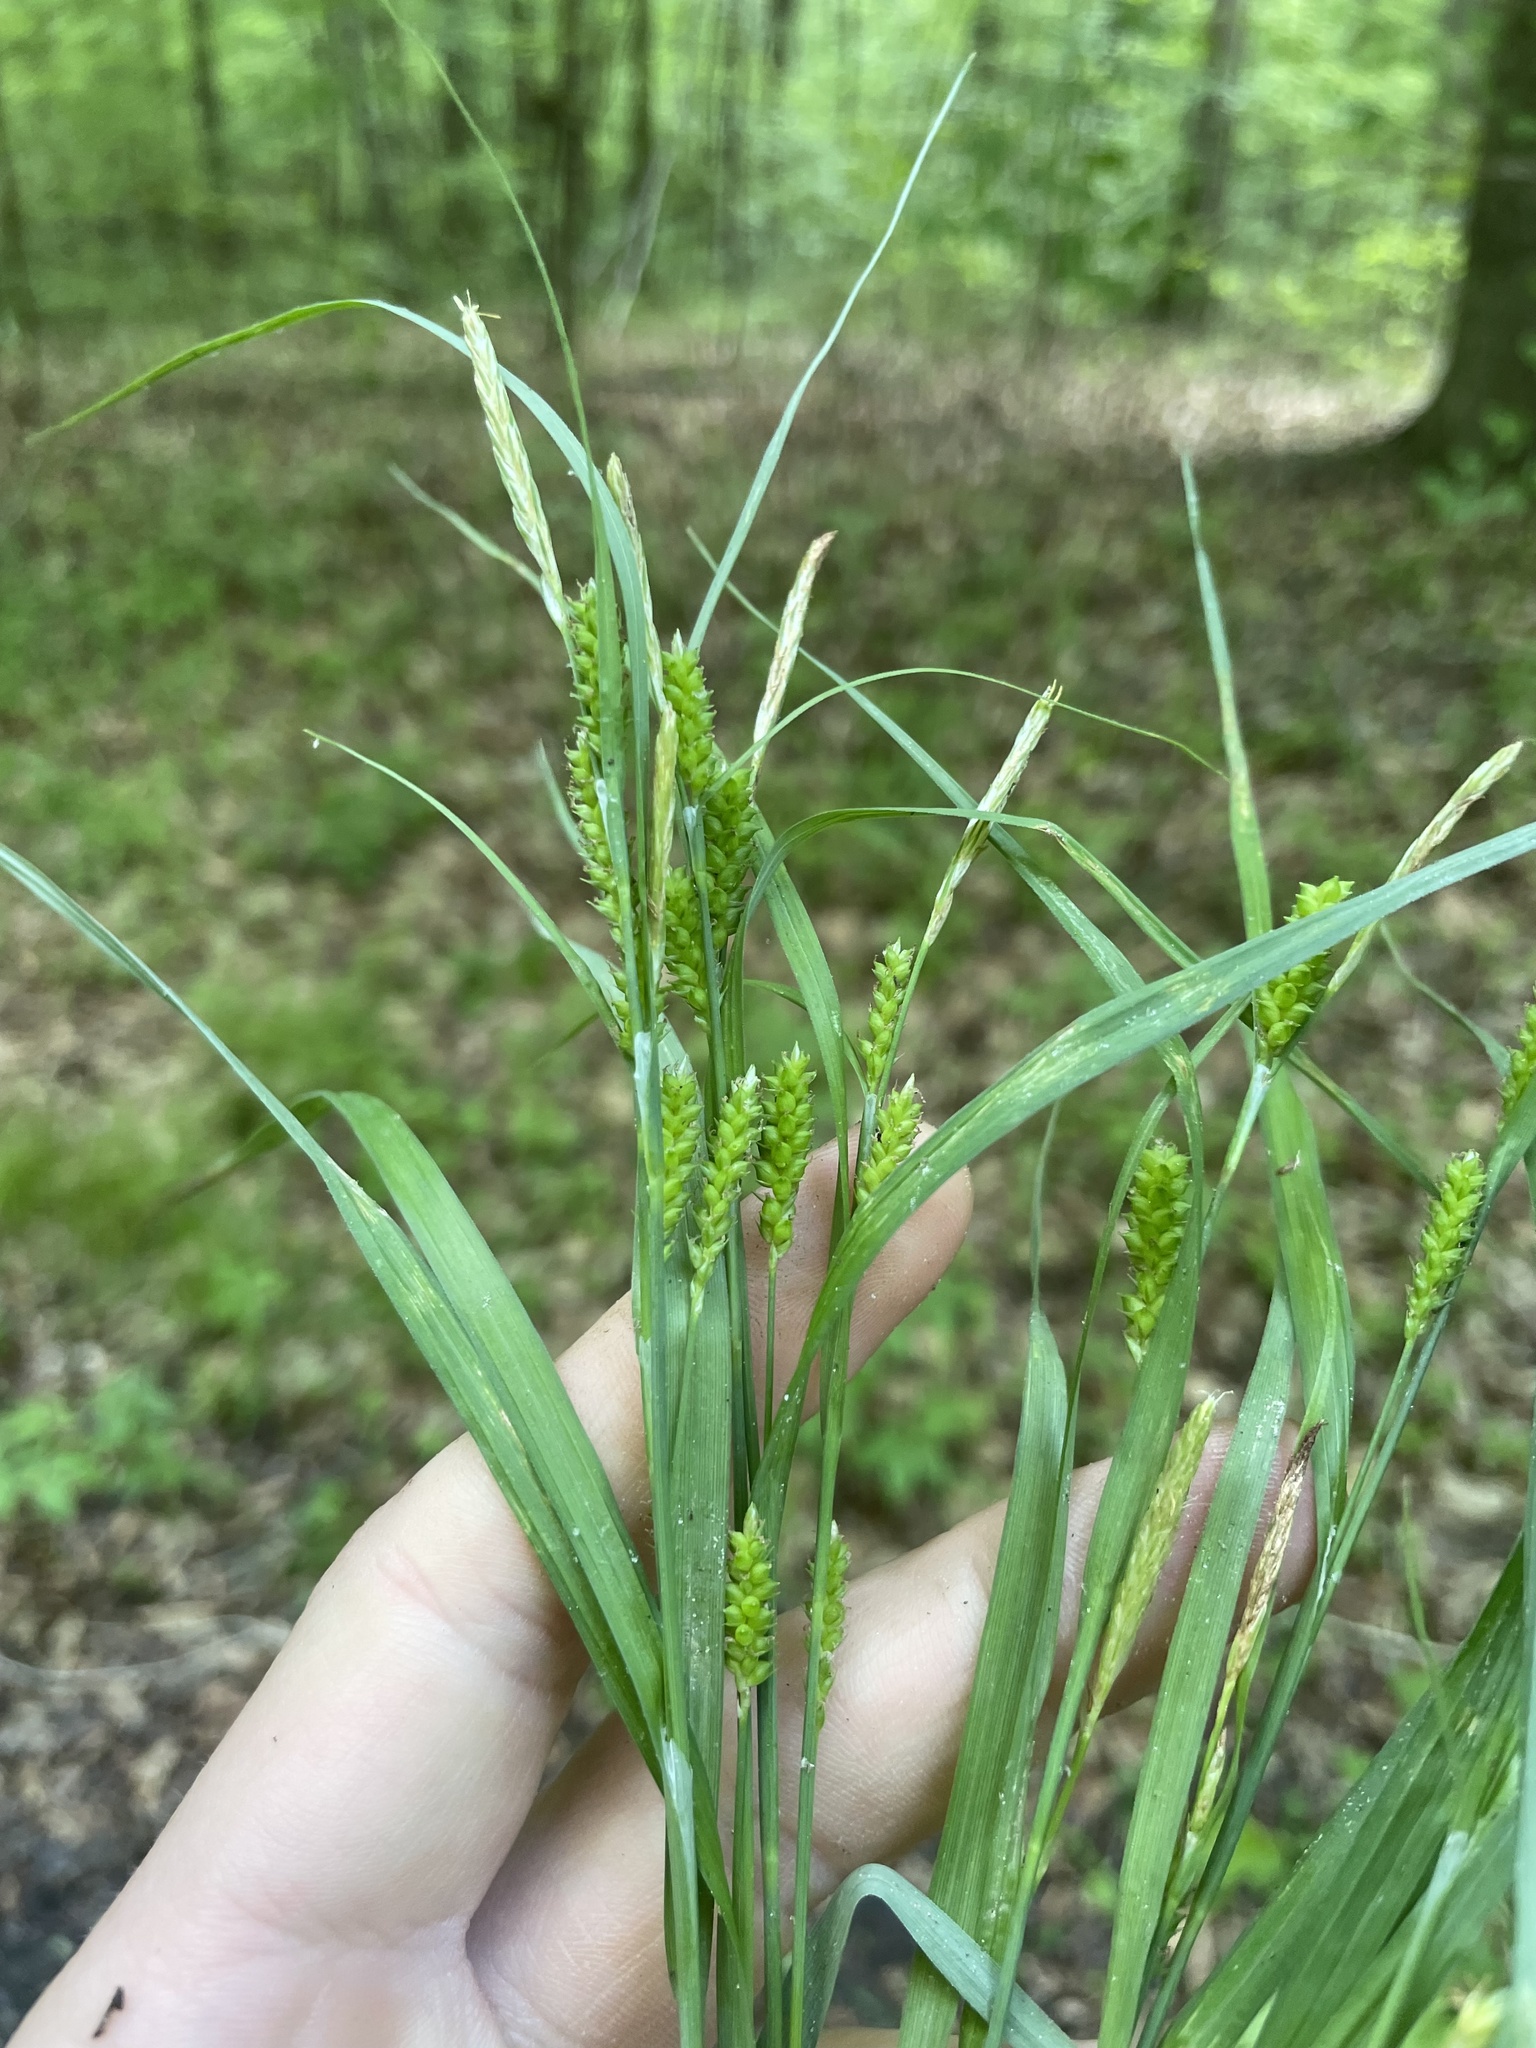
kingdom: Plantae
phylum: Tracheophyta
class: Liliopsida
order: Poales
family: Cyperaceae
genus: Carex
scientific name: Carex granularis
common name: Granular sedge
